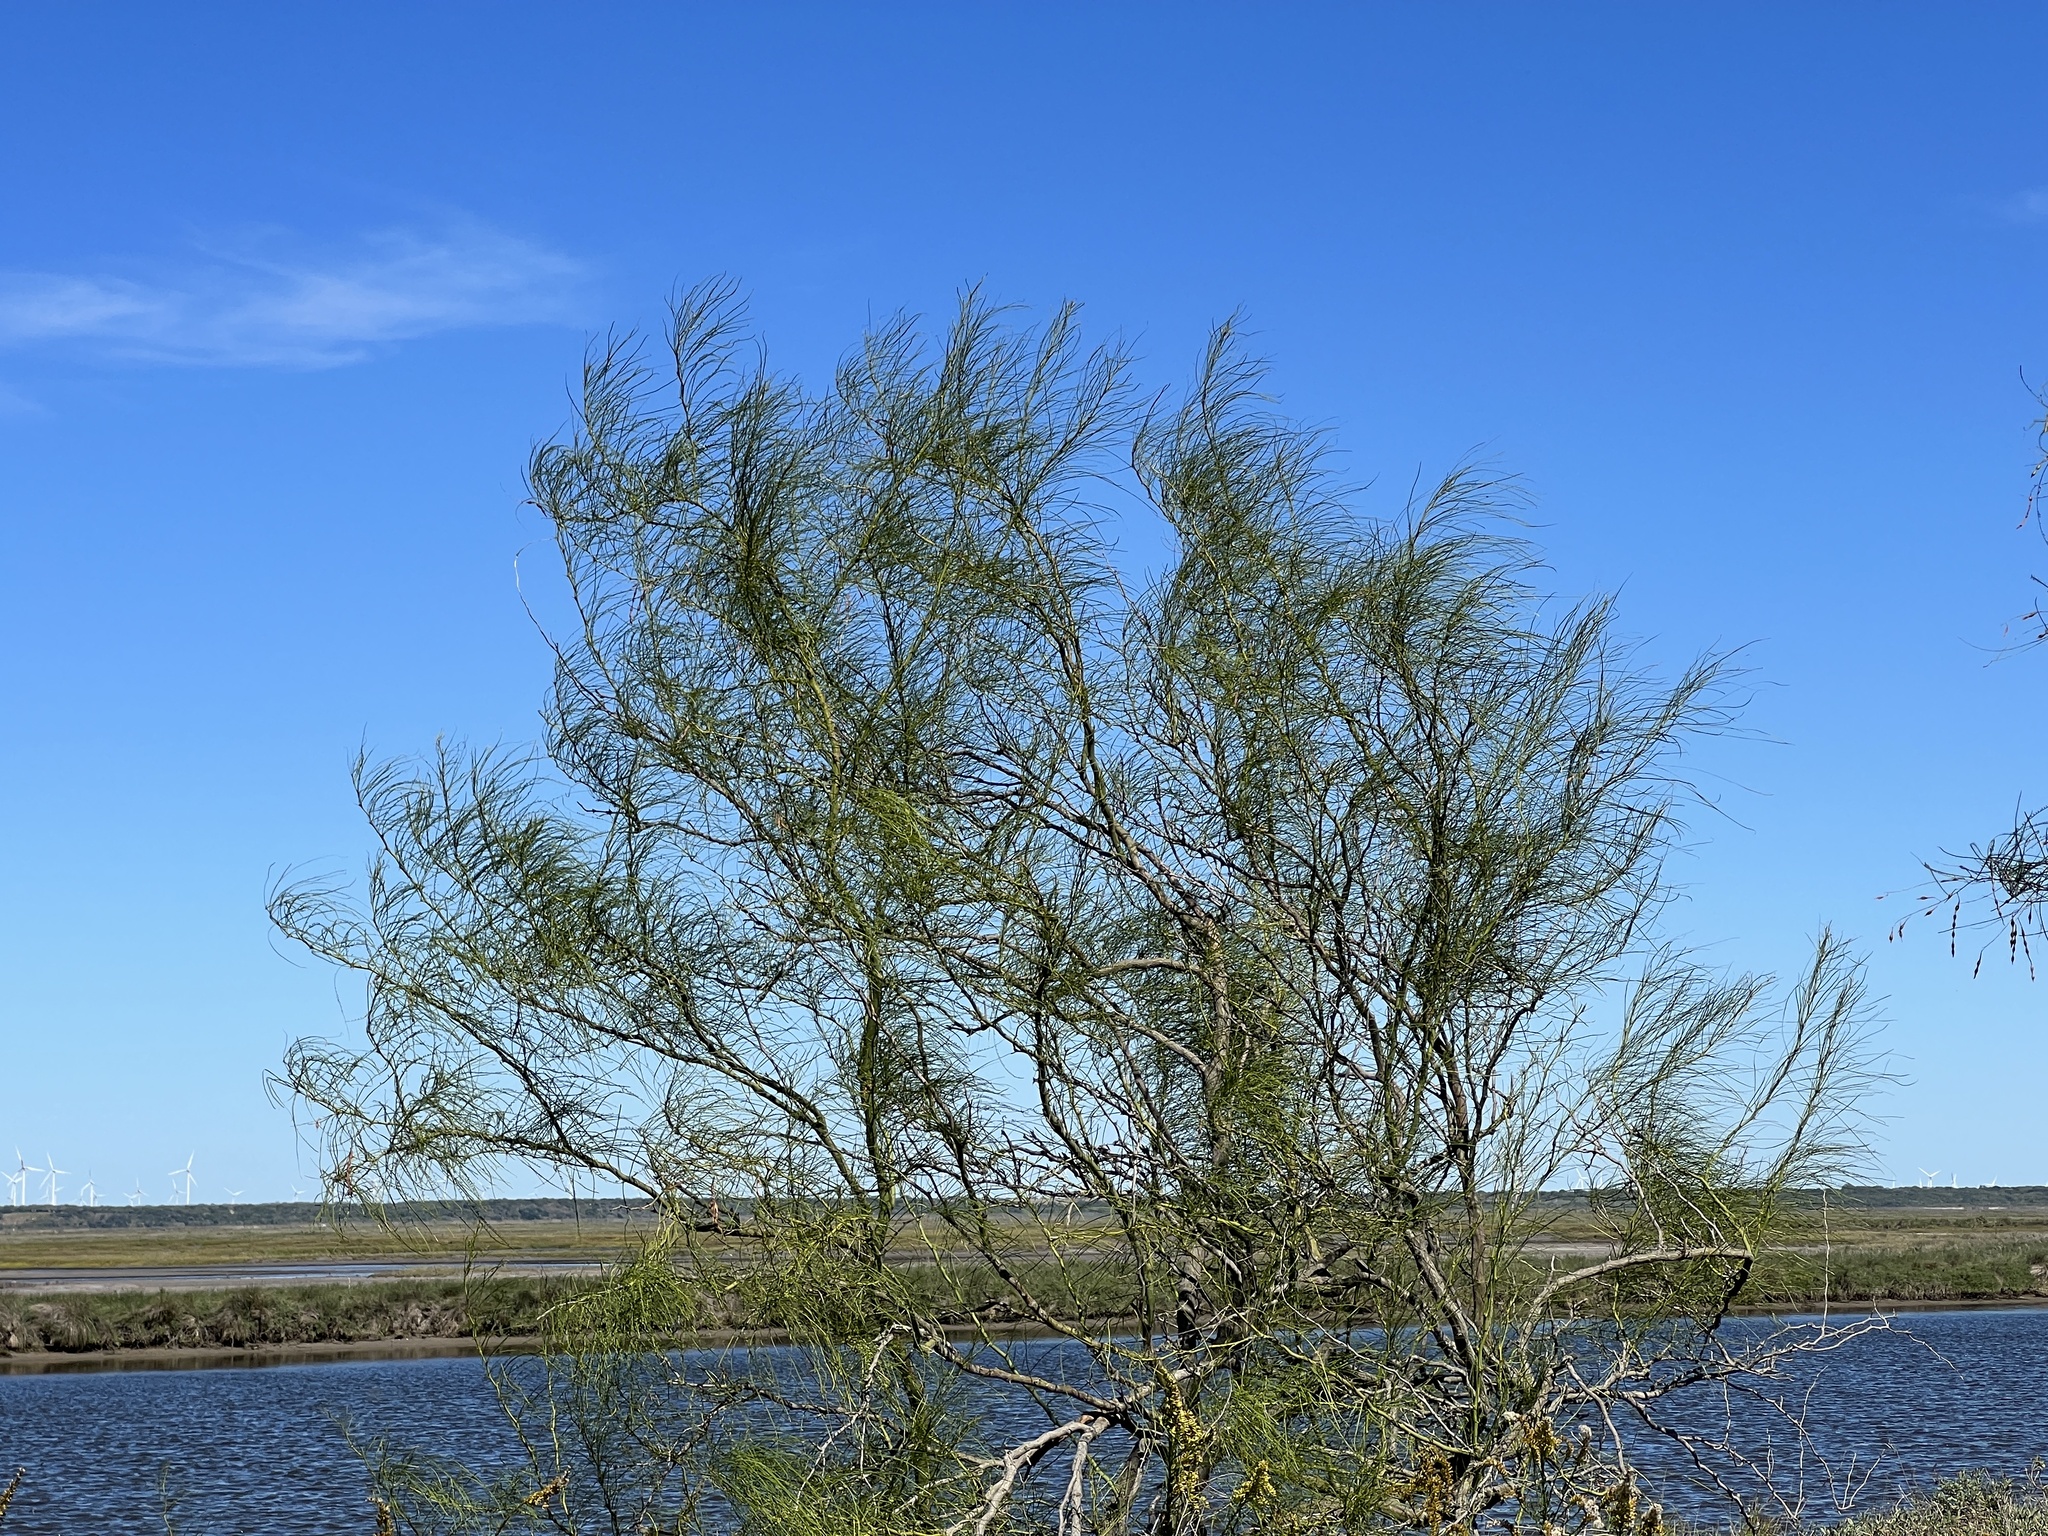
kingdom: Plantae
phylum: Tracheophyta
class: Magnoliopsida
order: Fabales
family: Fabaceae
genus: Parkinsonia
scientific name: Parkinsonia aculeata
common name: Jerusalem thorn
